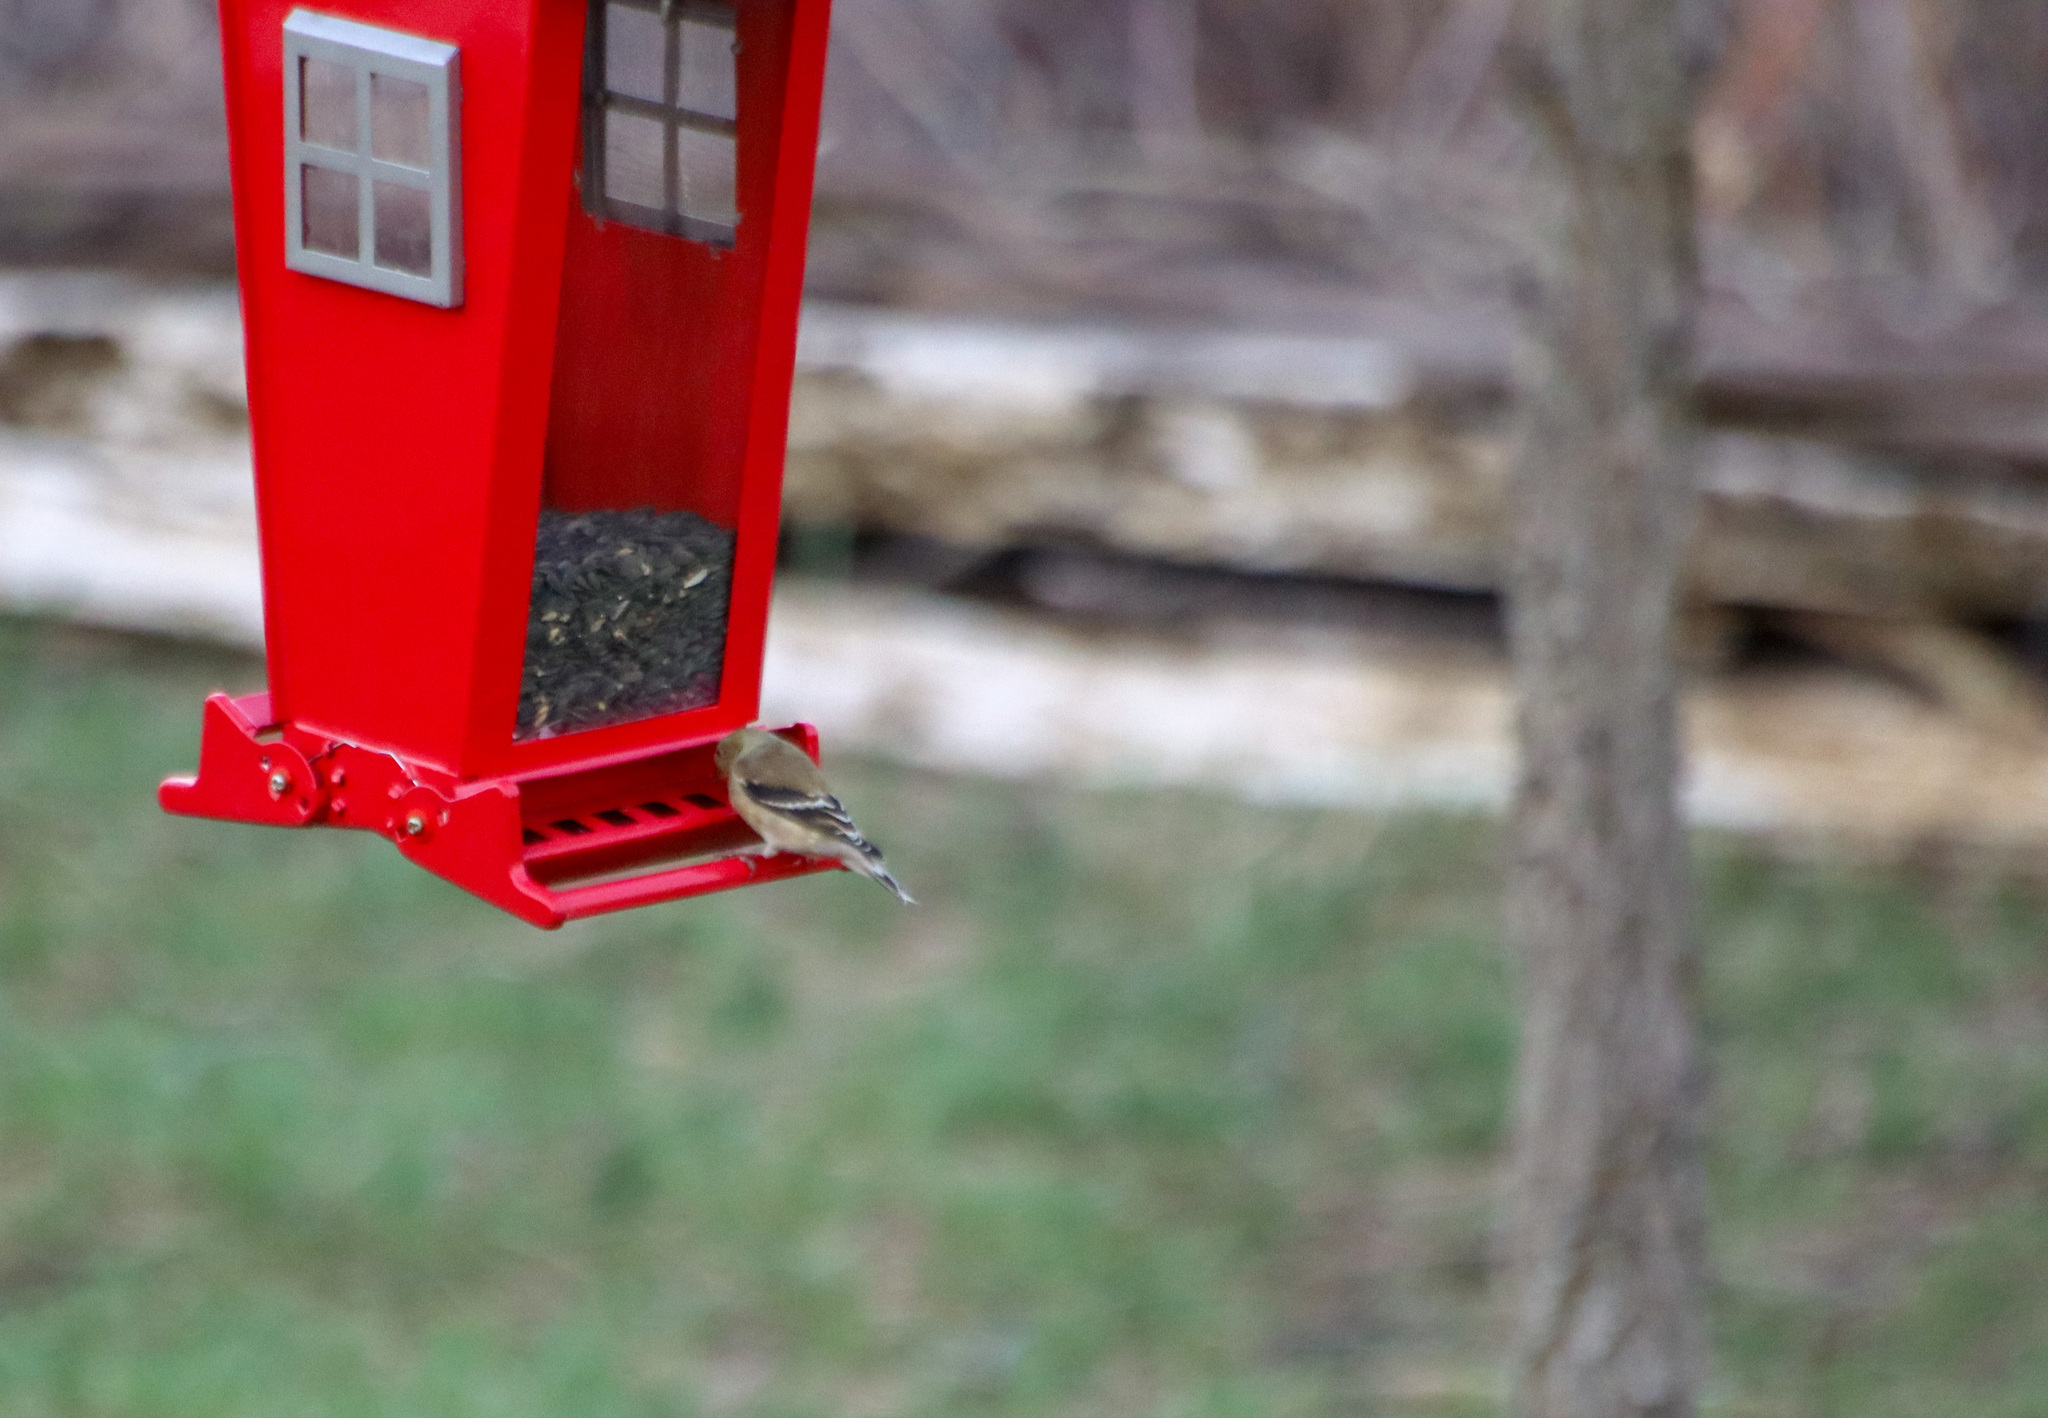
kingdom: Animalia
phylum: Chordata
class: Aves
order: Passeriformes
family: Fringillidae
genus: Spinus
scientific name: Spinus tristis
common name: American goldfinch
